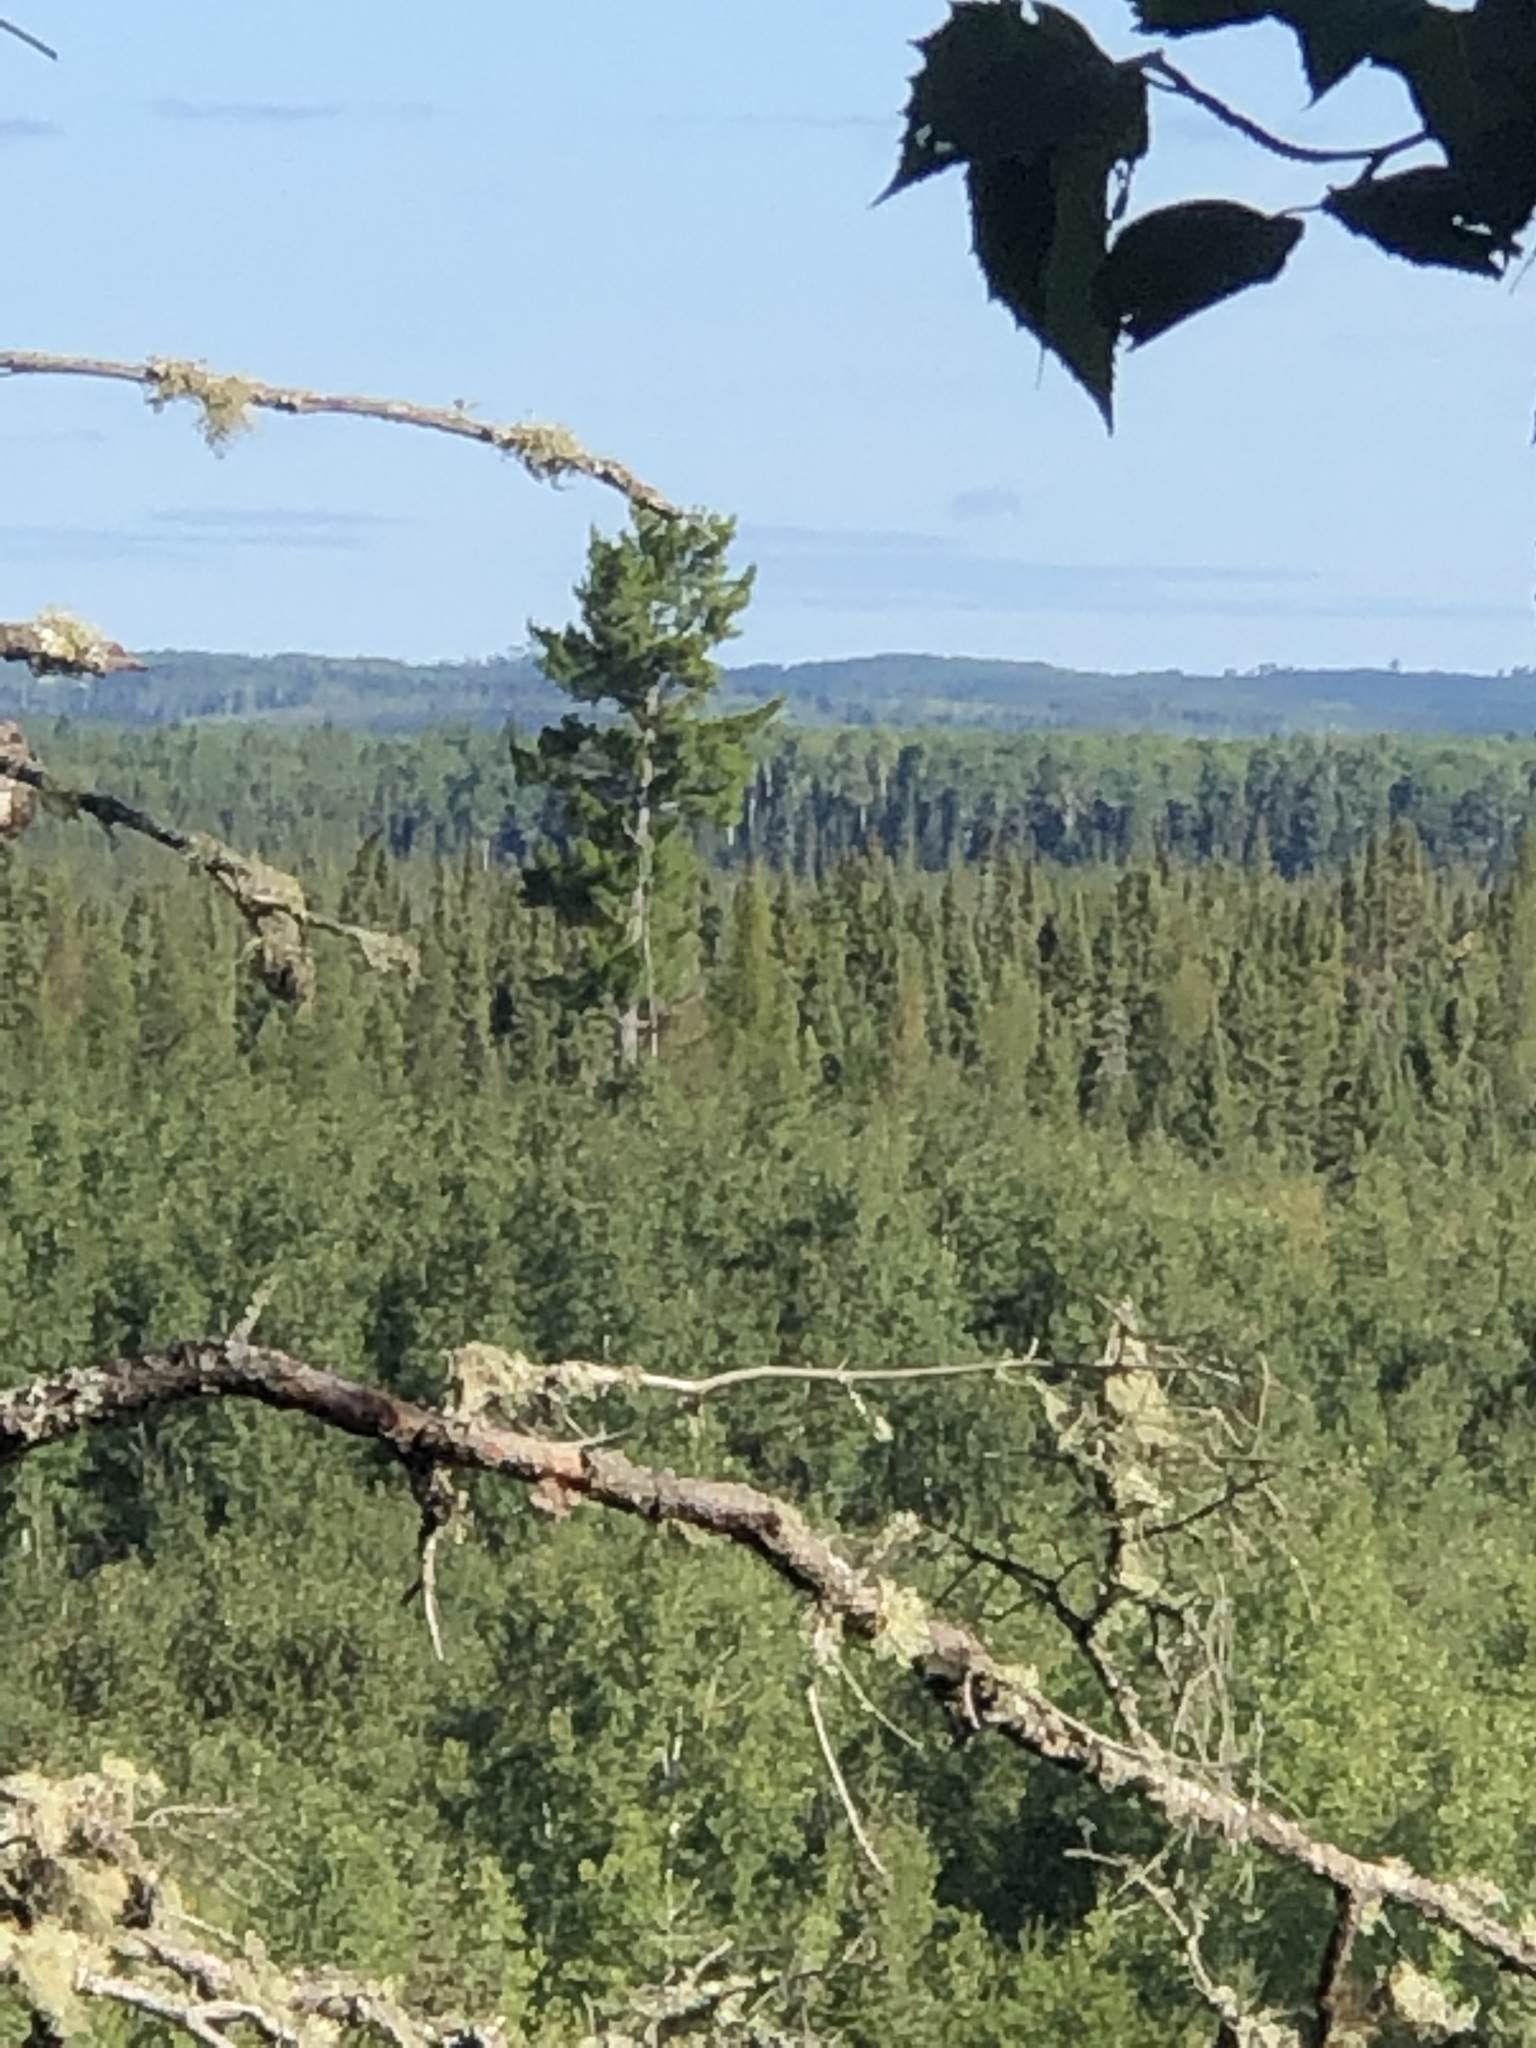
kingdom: Plantae
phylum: Tracheophyta
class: Pinopsida
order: Pinales
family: Pinaceae
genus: Pinus
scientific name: Pinus strobus
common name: Weymouth pine
